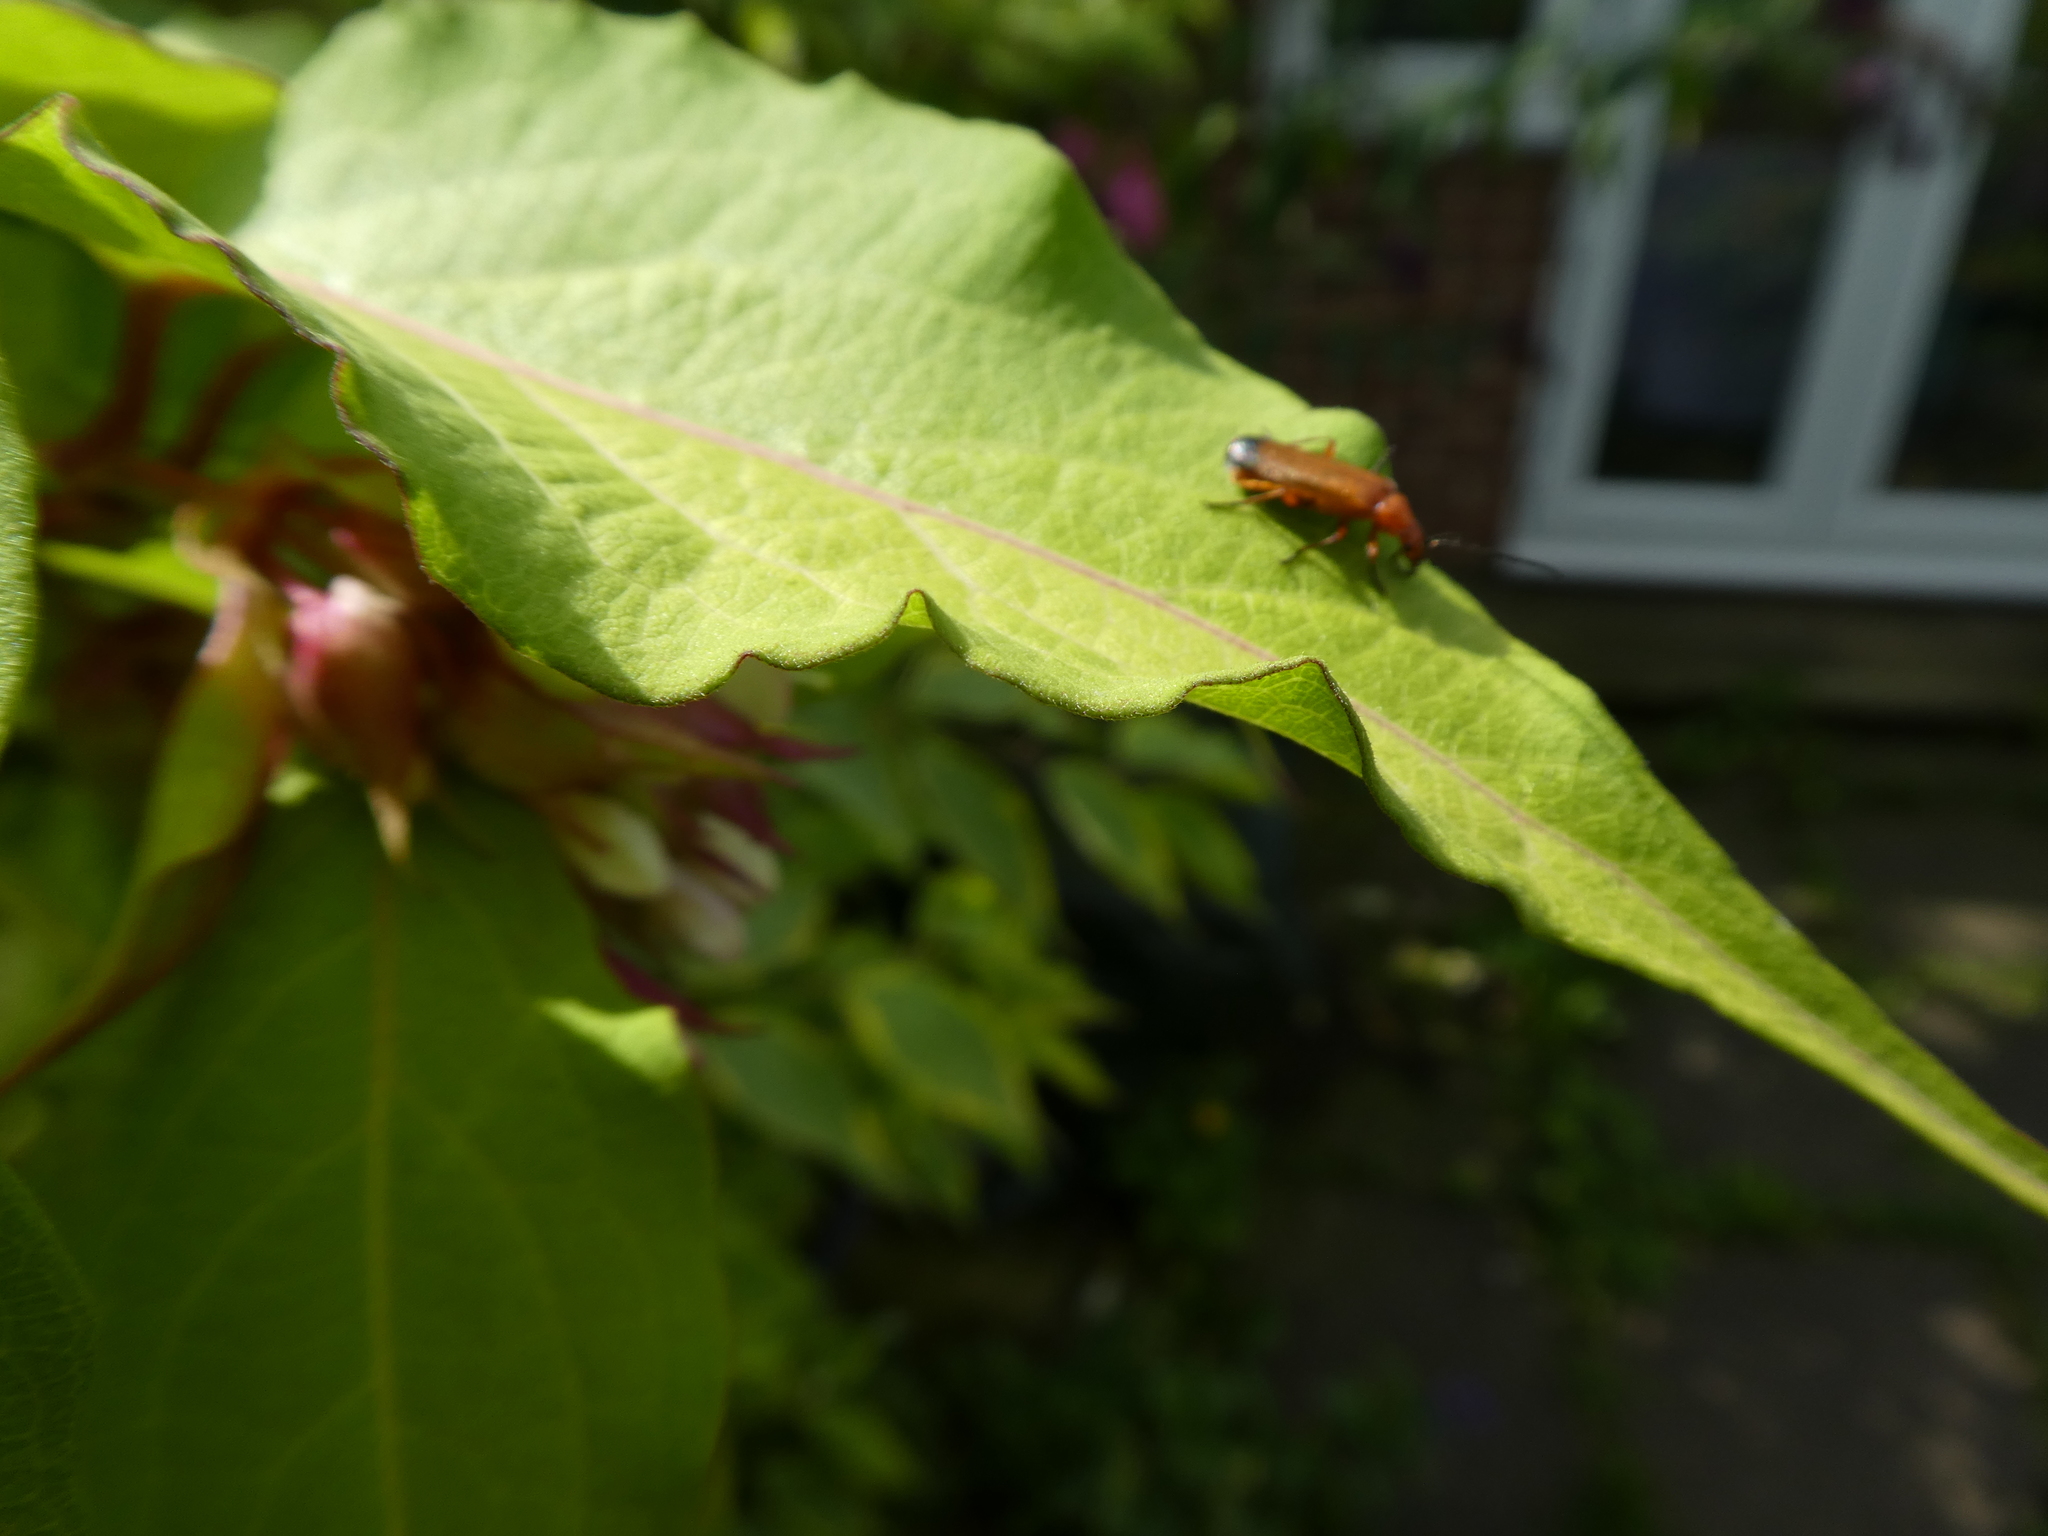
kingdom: Animalia
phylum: Arthropoda
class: Insecta
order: Coleoptera
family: Cantharidae
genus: Rhagonycha
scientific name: Rhagonycha fulva
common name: Common red soldier beetle
